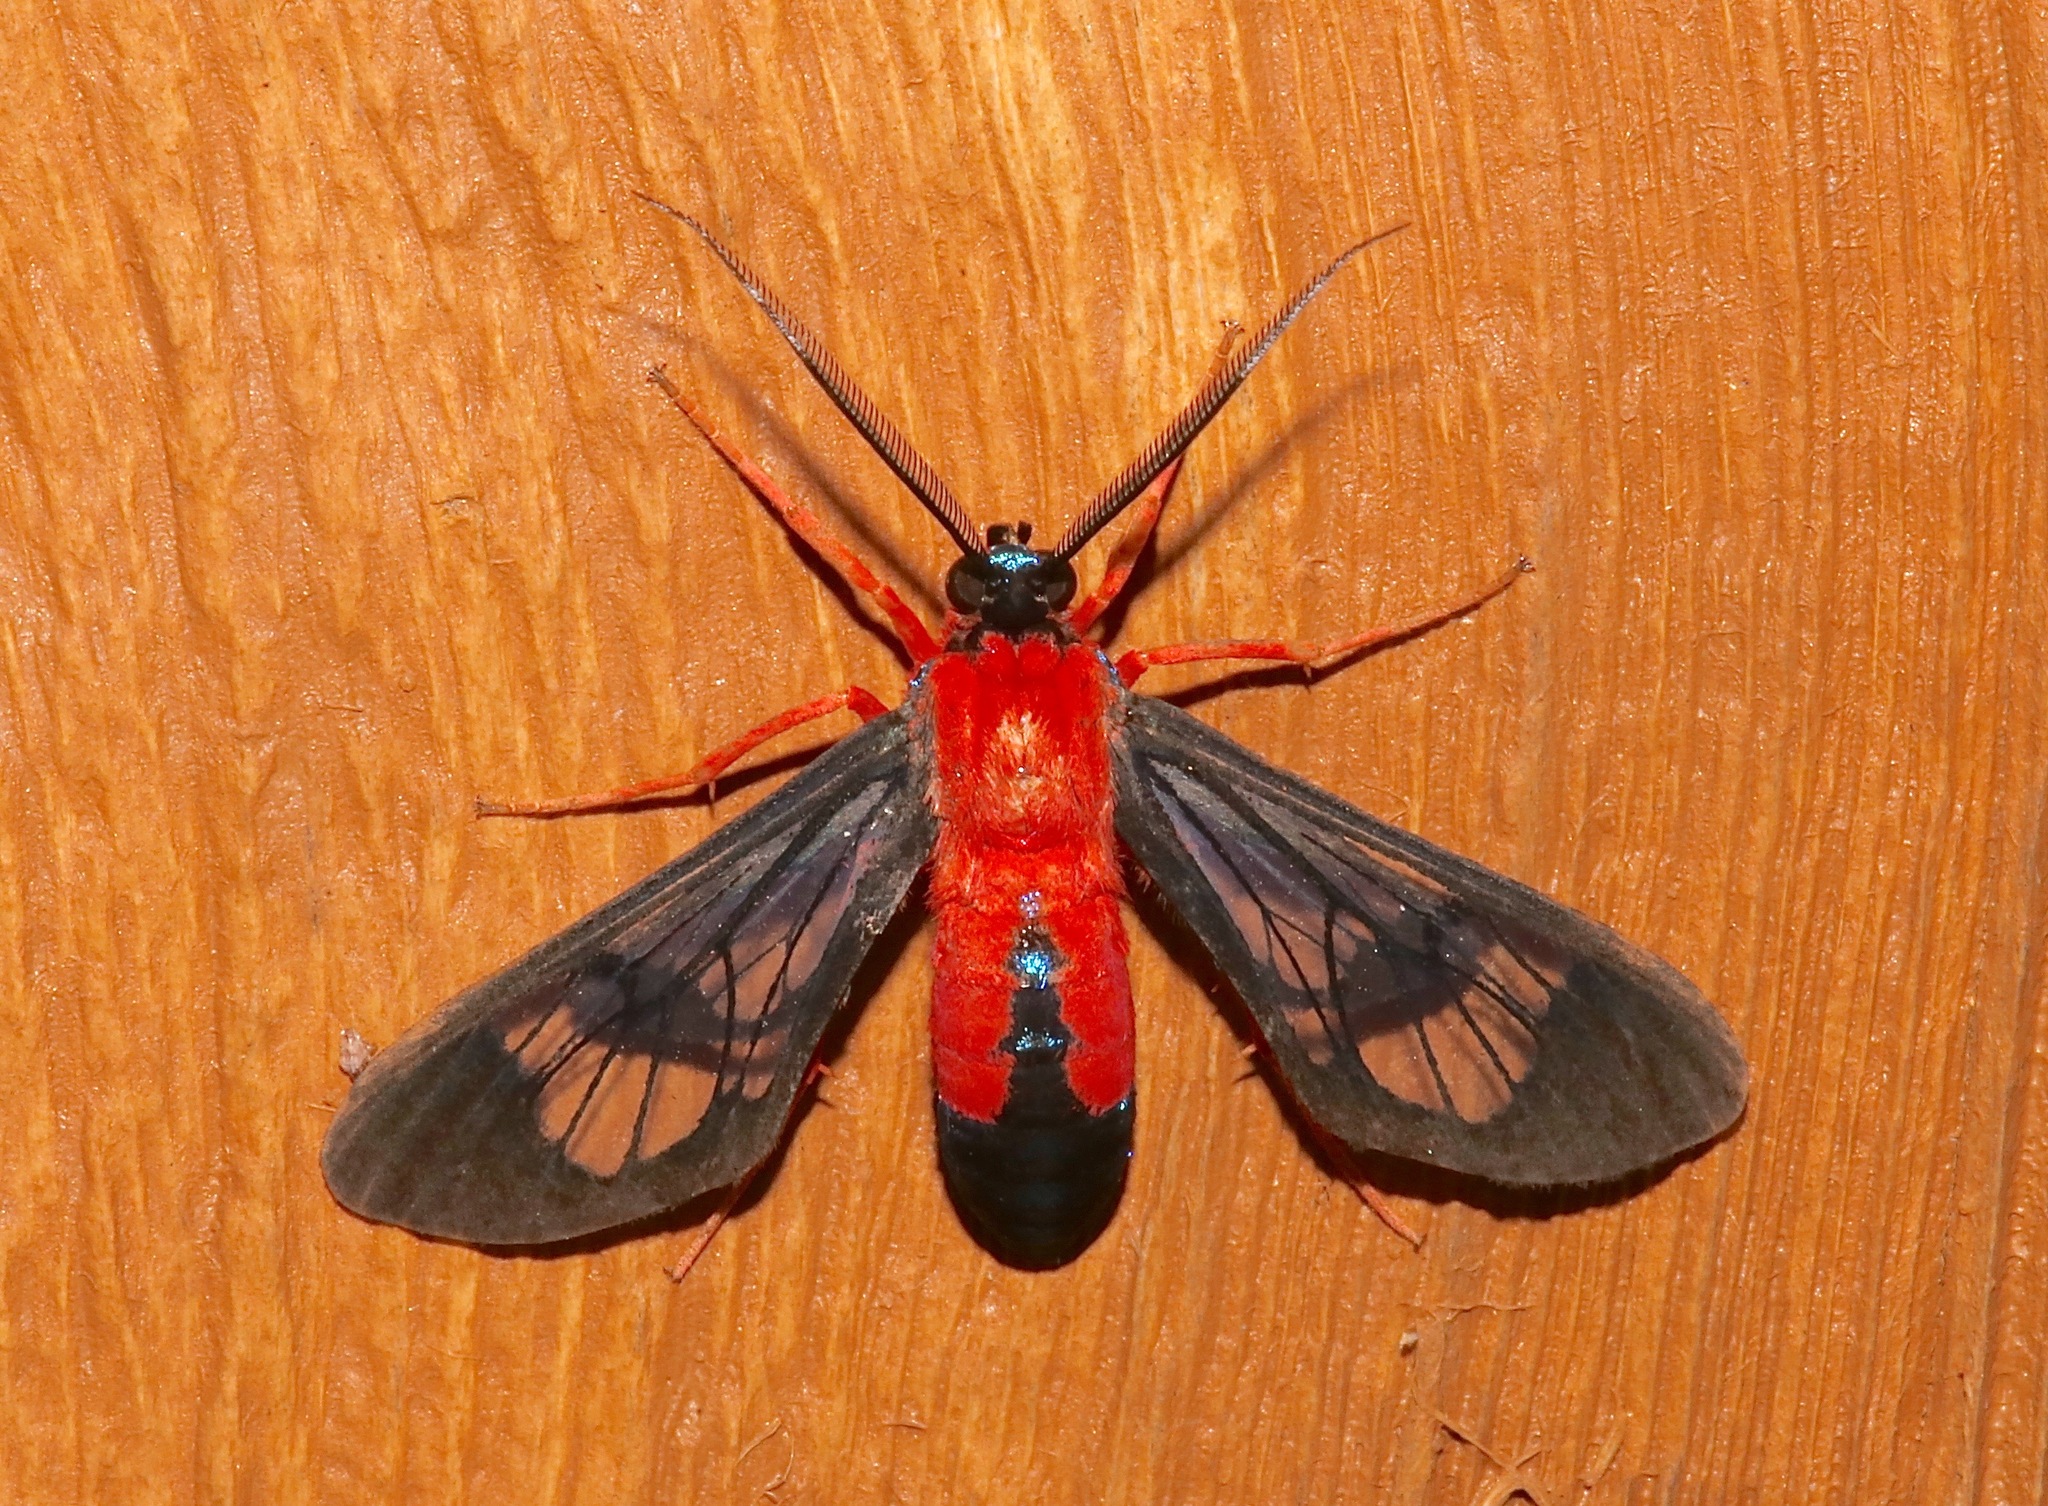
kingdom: Animalia
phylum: Arthropoda
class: Insecta
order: Lepidoptera
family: Erebidae
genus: Cosmosoma
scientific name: Cosmosoma myrodora
